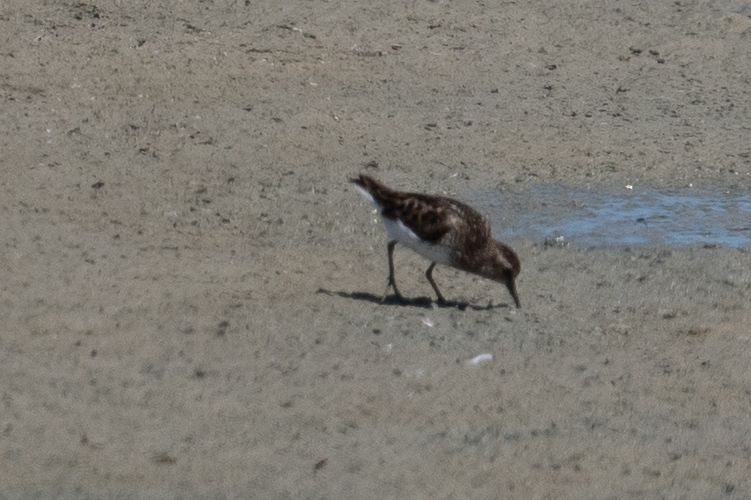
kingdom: Animalia
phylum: Chordata
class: Aves
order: Charadriiformes
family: Scolopacidae
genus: Calidris
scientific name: Calidris minutilla
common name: Least sandpiper
